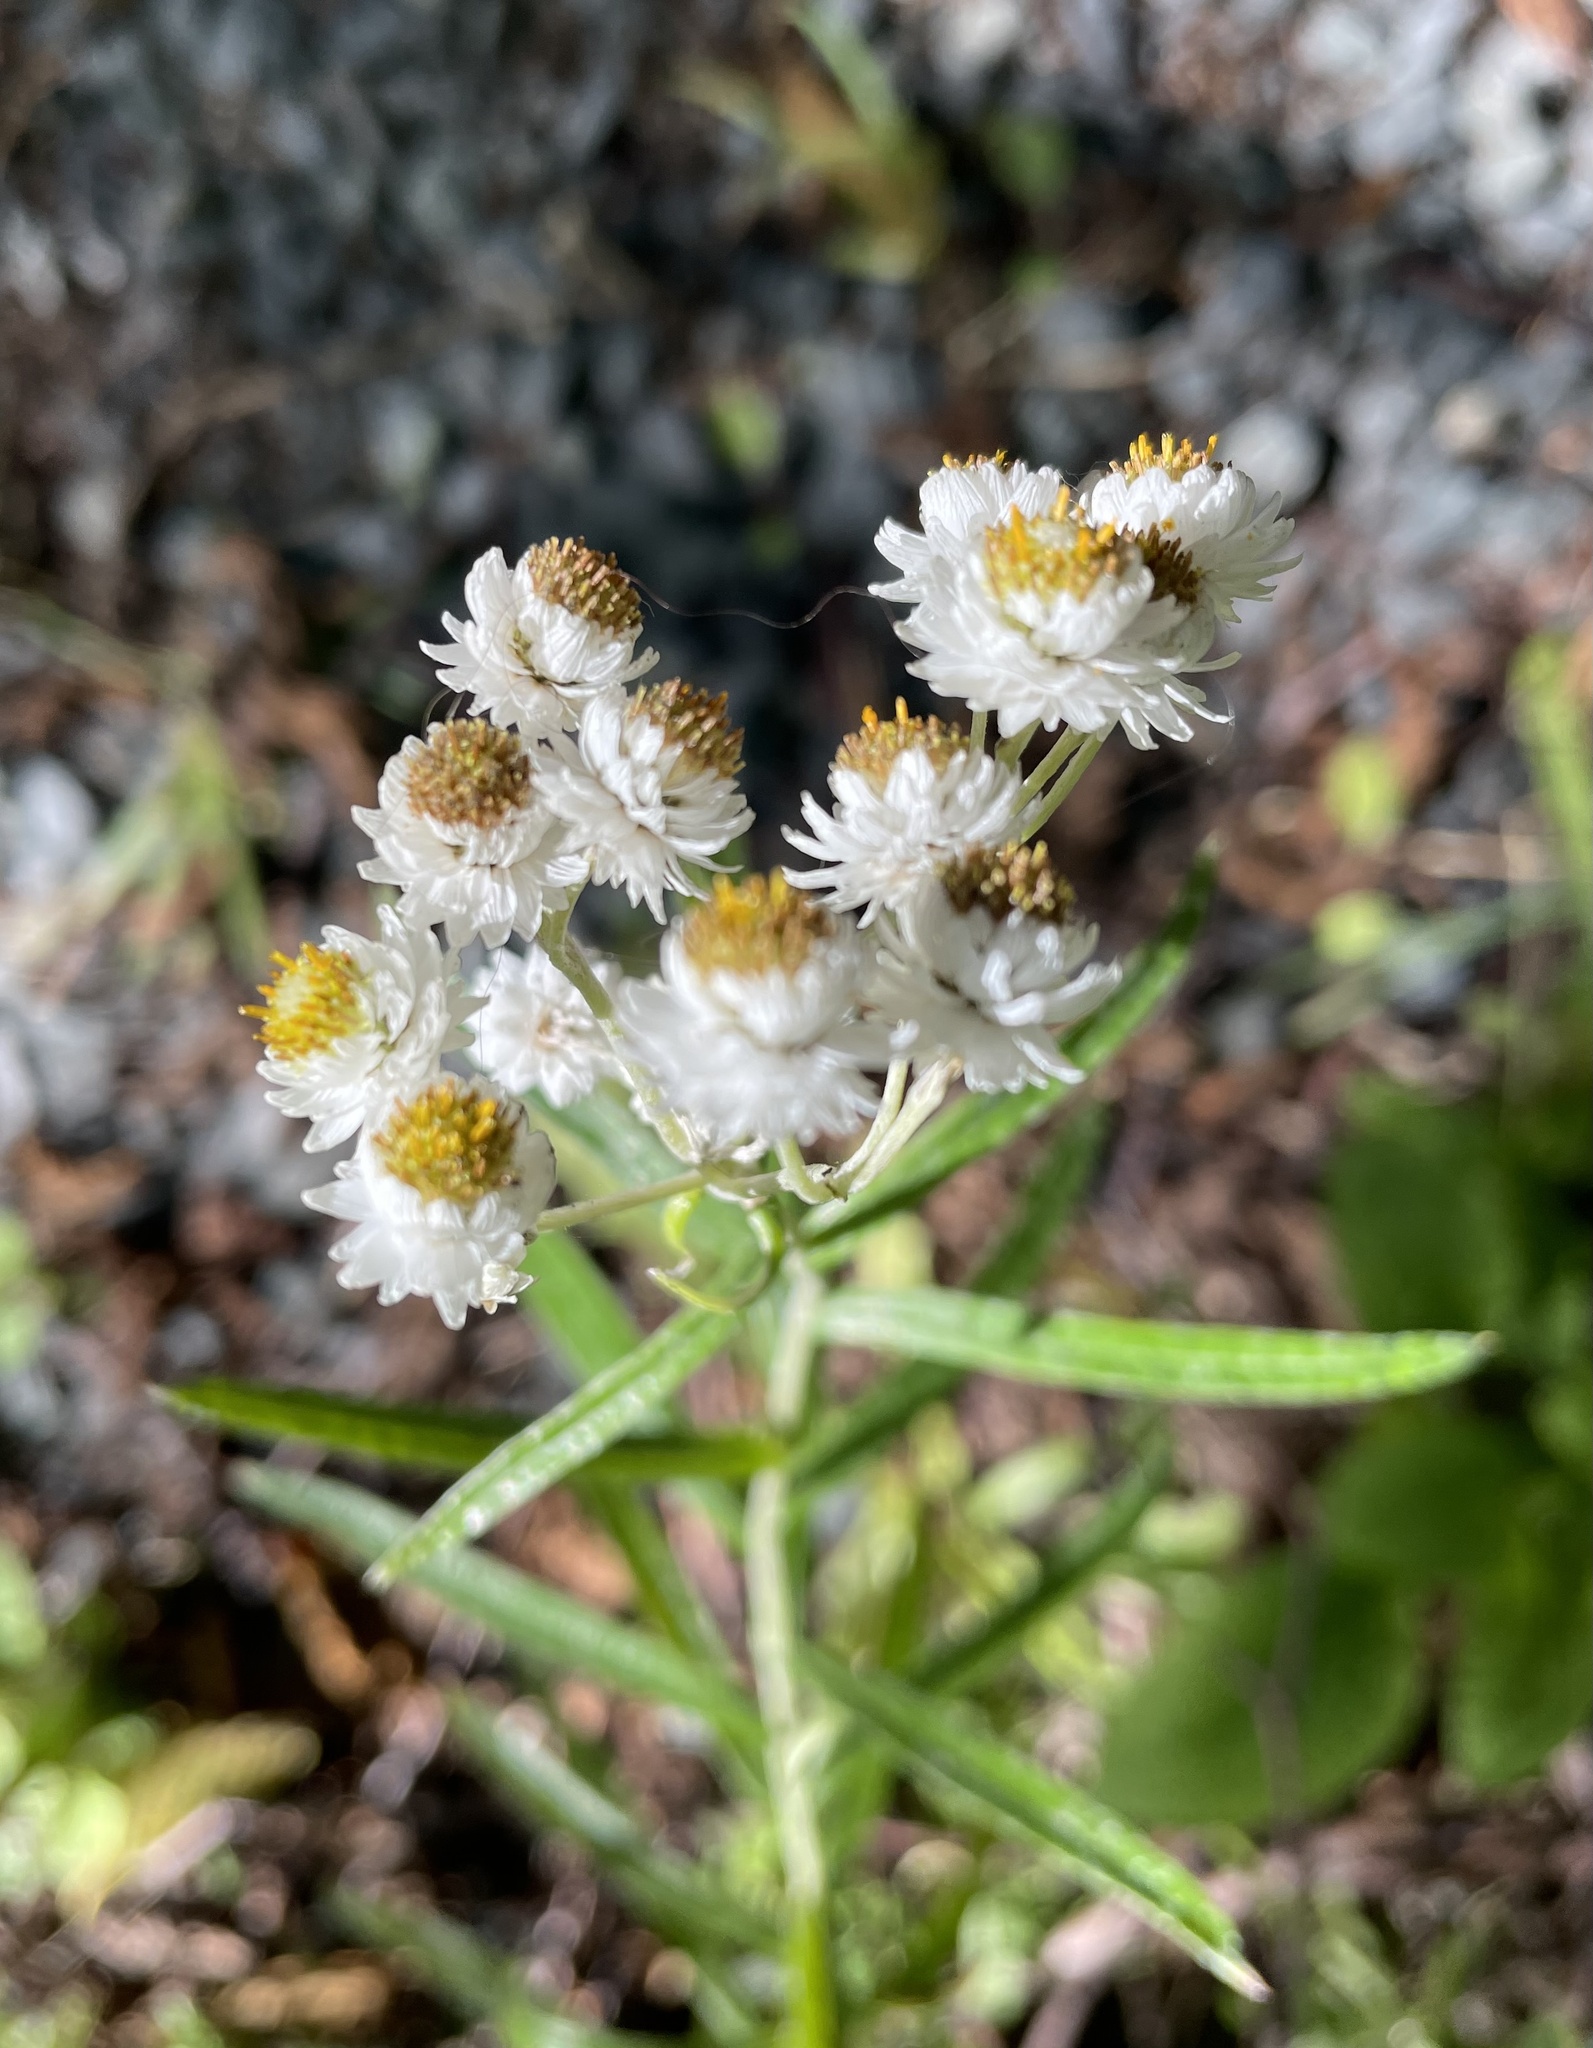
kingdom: Plantae
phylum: Tracheophyta
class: Magnoliopsida
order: Asterales
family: Asteraceae
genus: Anaphalis
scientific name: Anaphalis margaritacea
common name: Pearly everlasting
